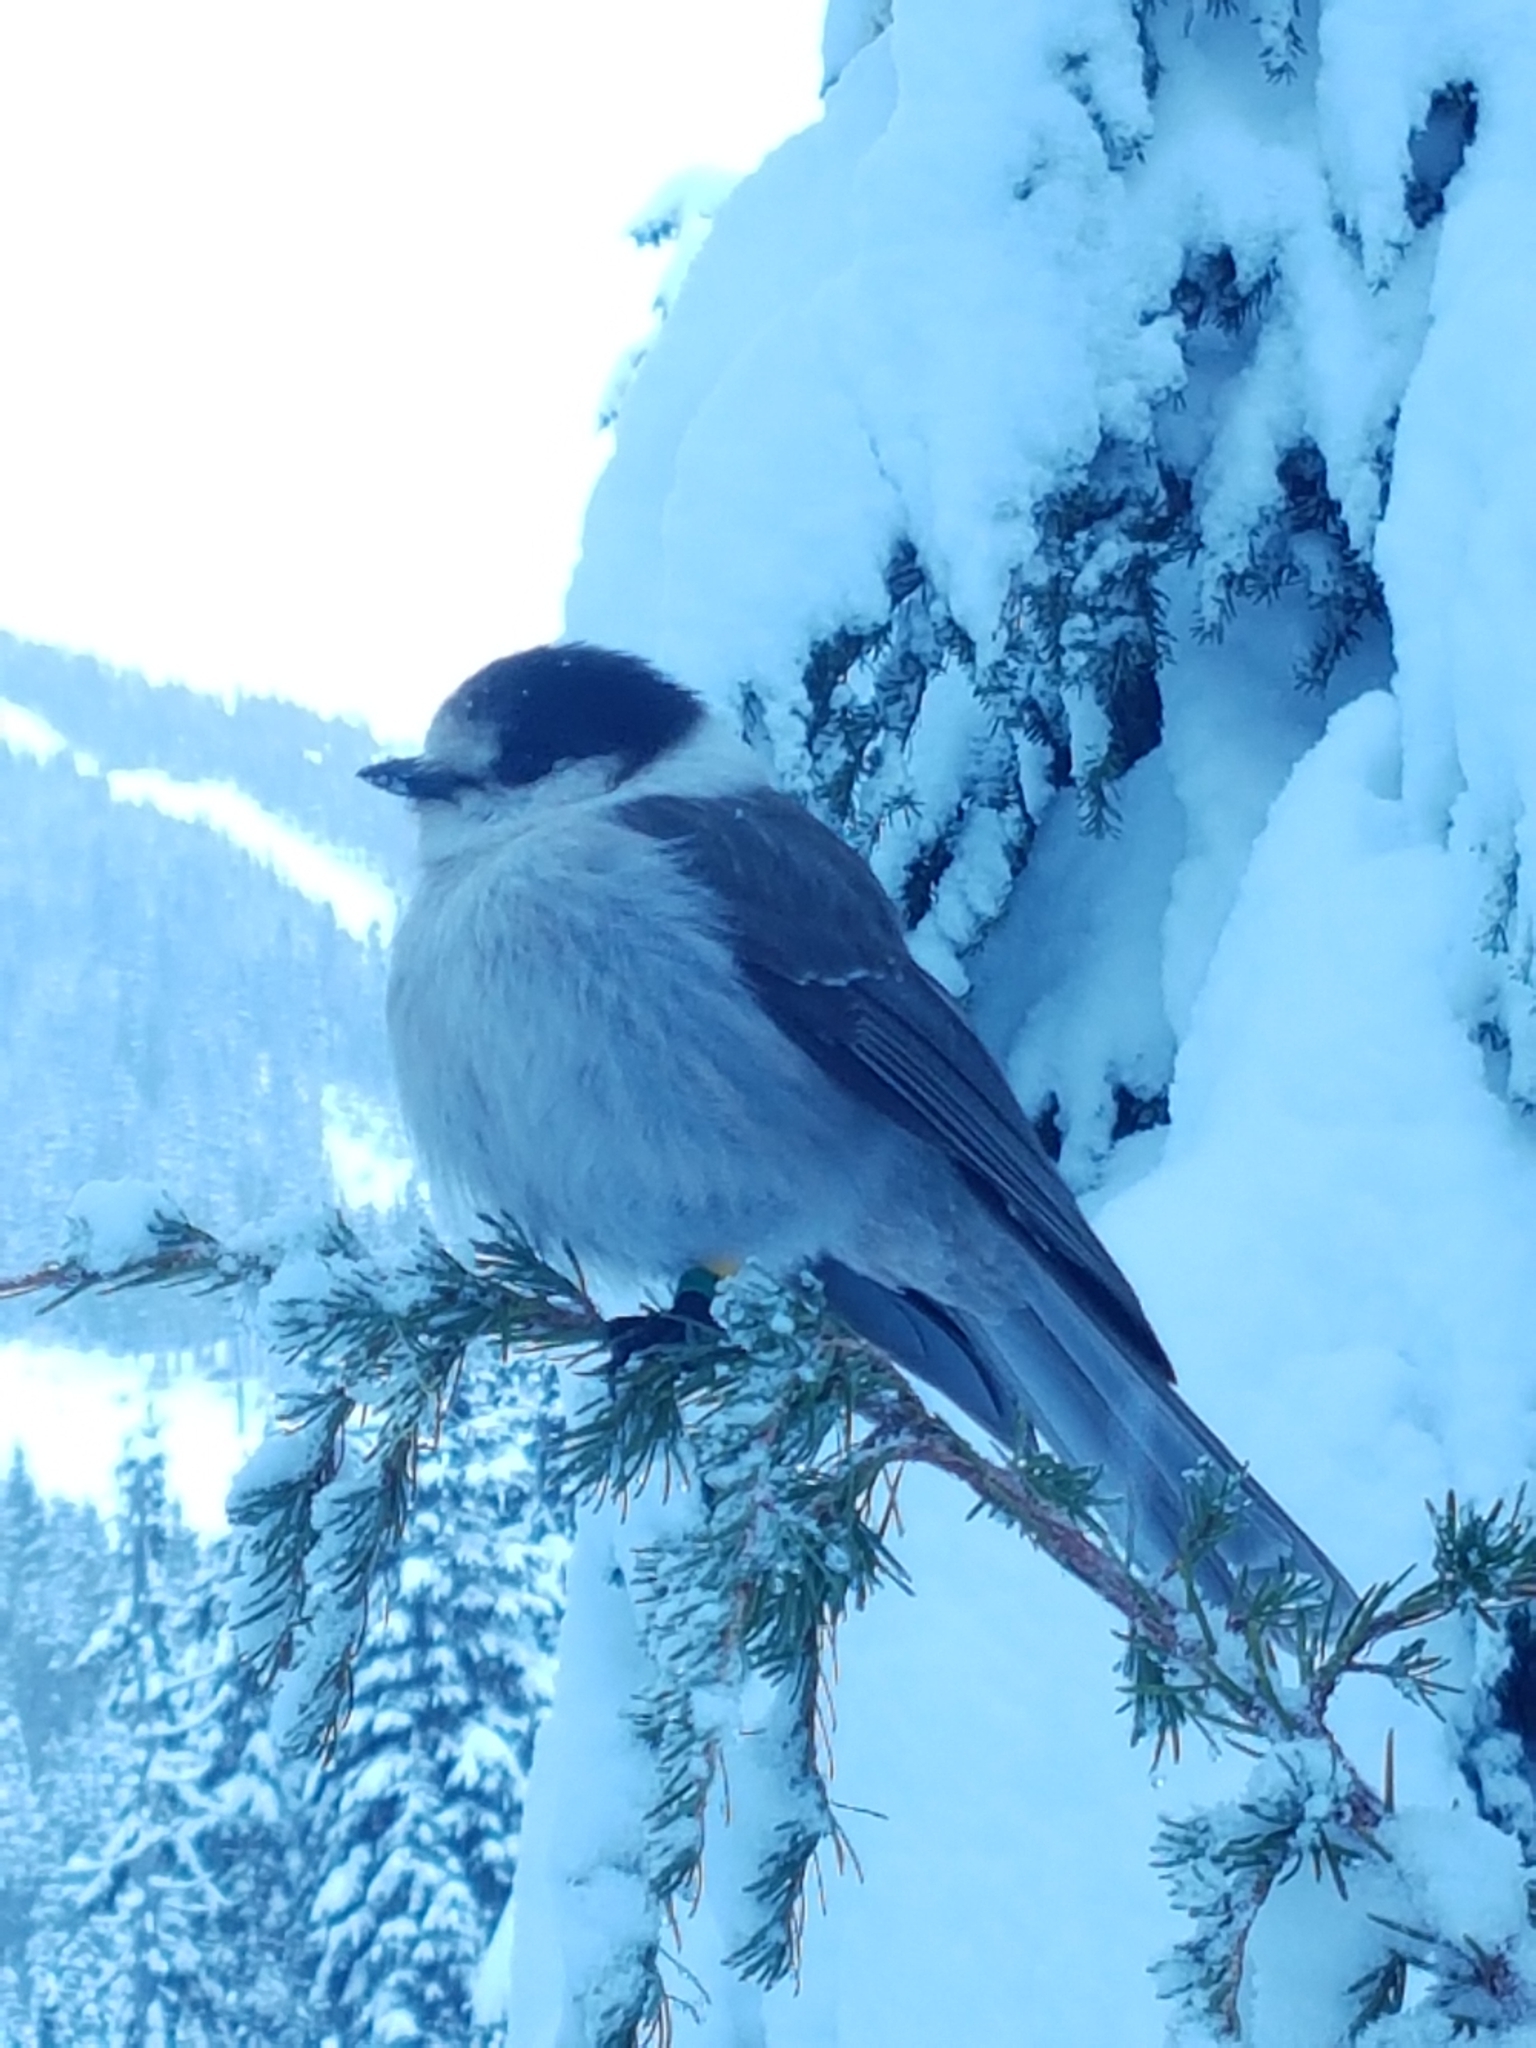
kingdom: Animalia
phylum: Chordata
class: Aves
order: Passeriformes
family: Corvidae
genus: Perisoreus
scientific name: Perisoreus canadensis
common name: Gray jay
